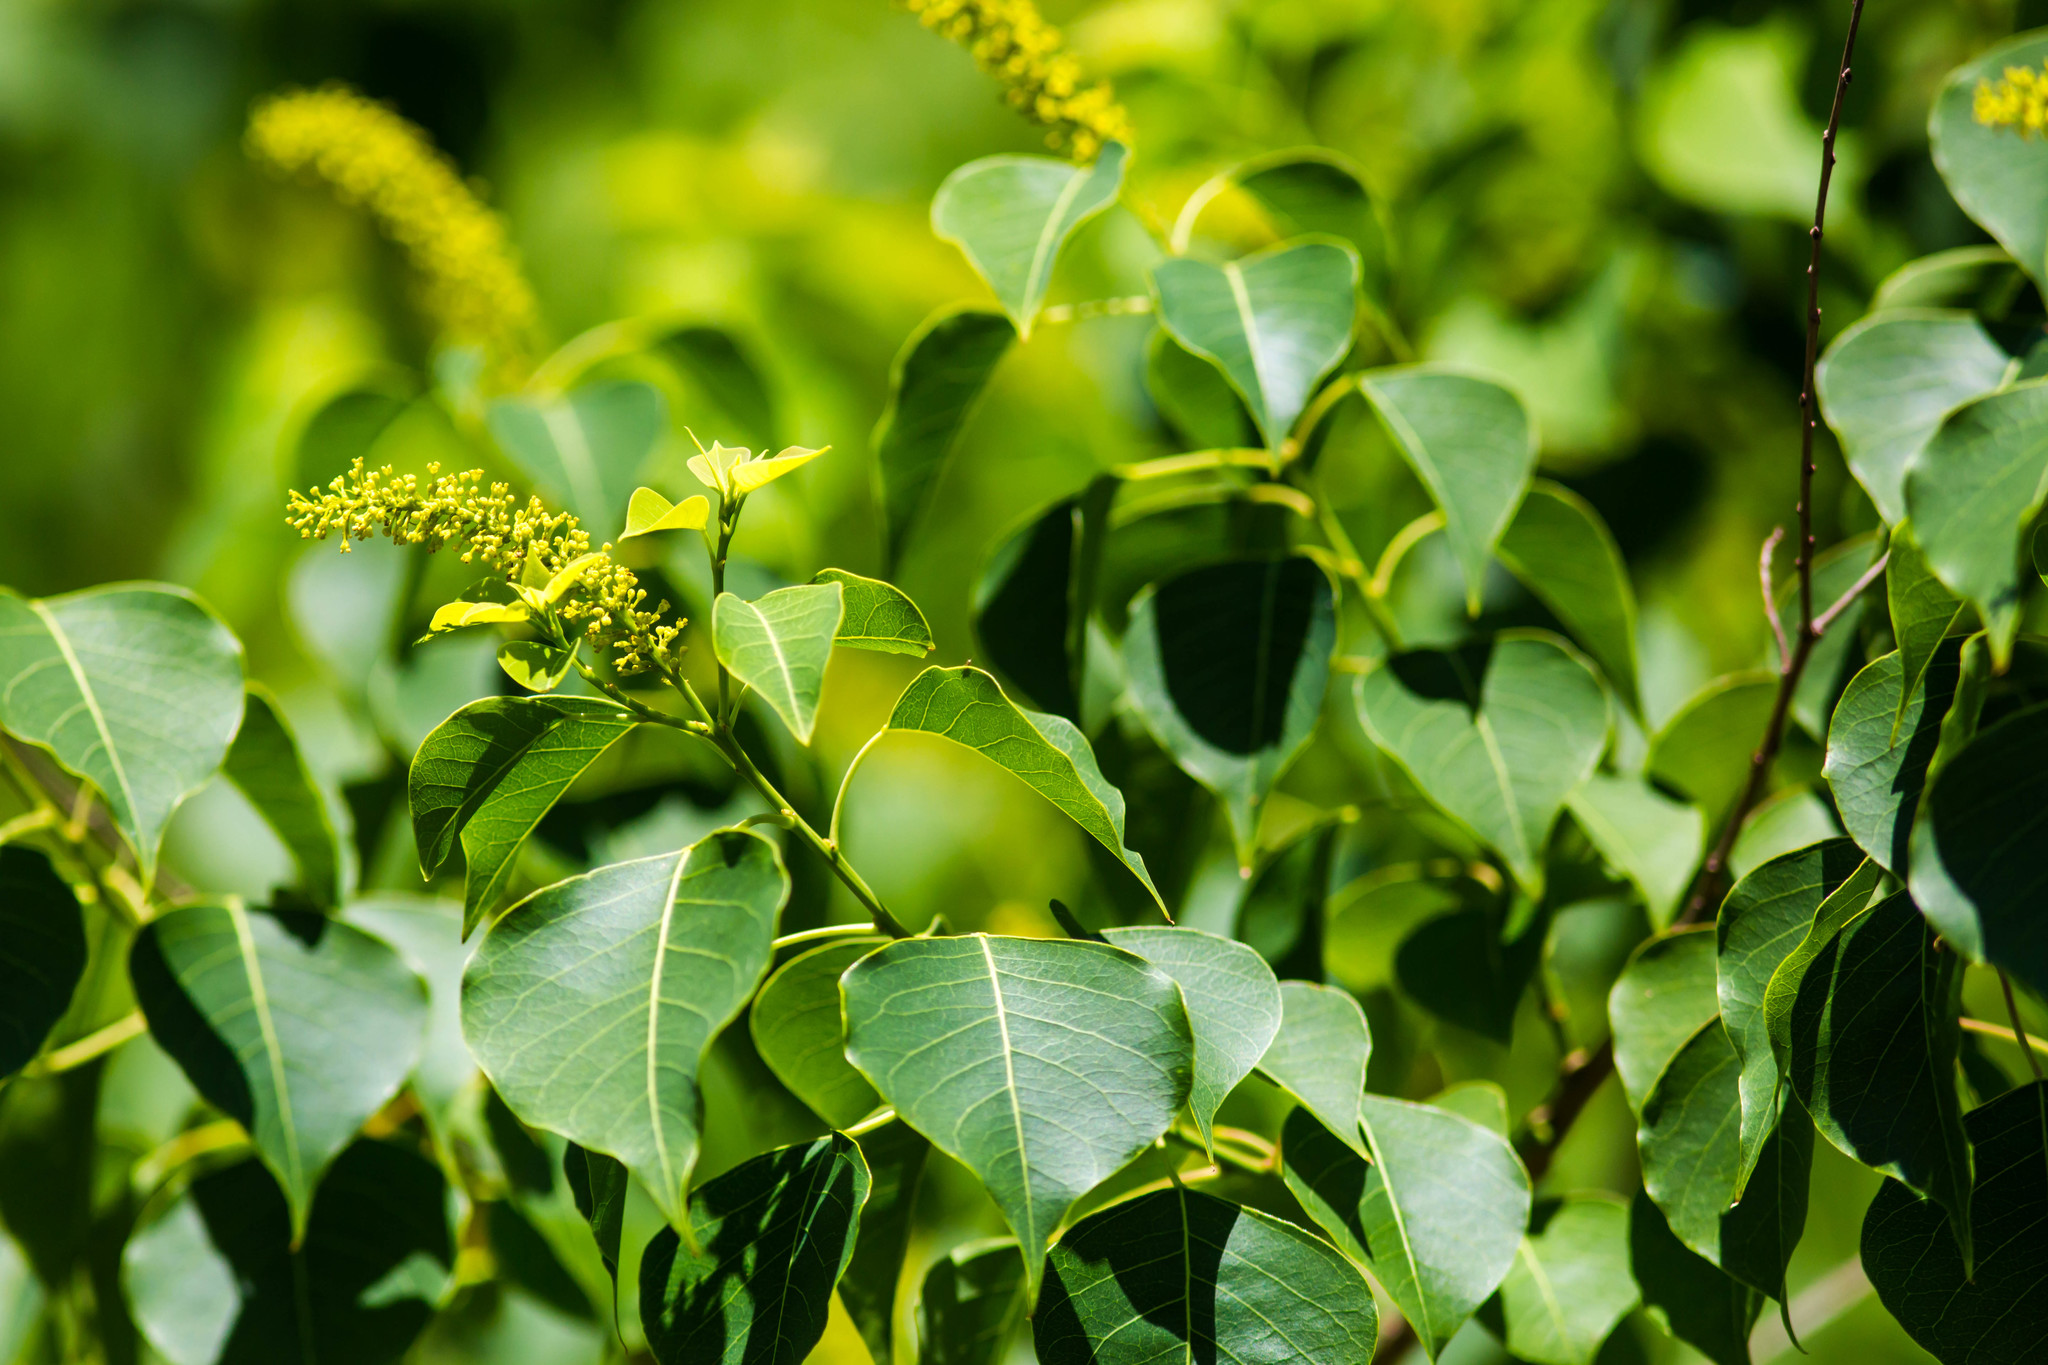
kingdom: Plantae
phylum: Tracheophyta
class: Magnoliopsida
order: Malpighiales
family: Euphorbiaceae
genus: Triadica
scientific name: Triadica sebifera
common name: Chinese tallow
